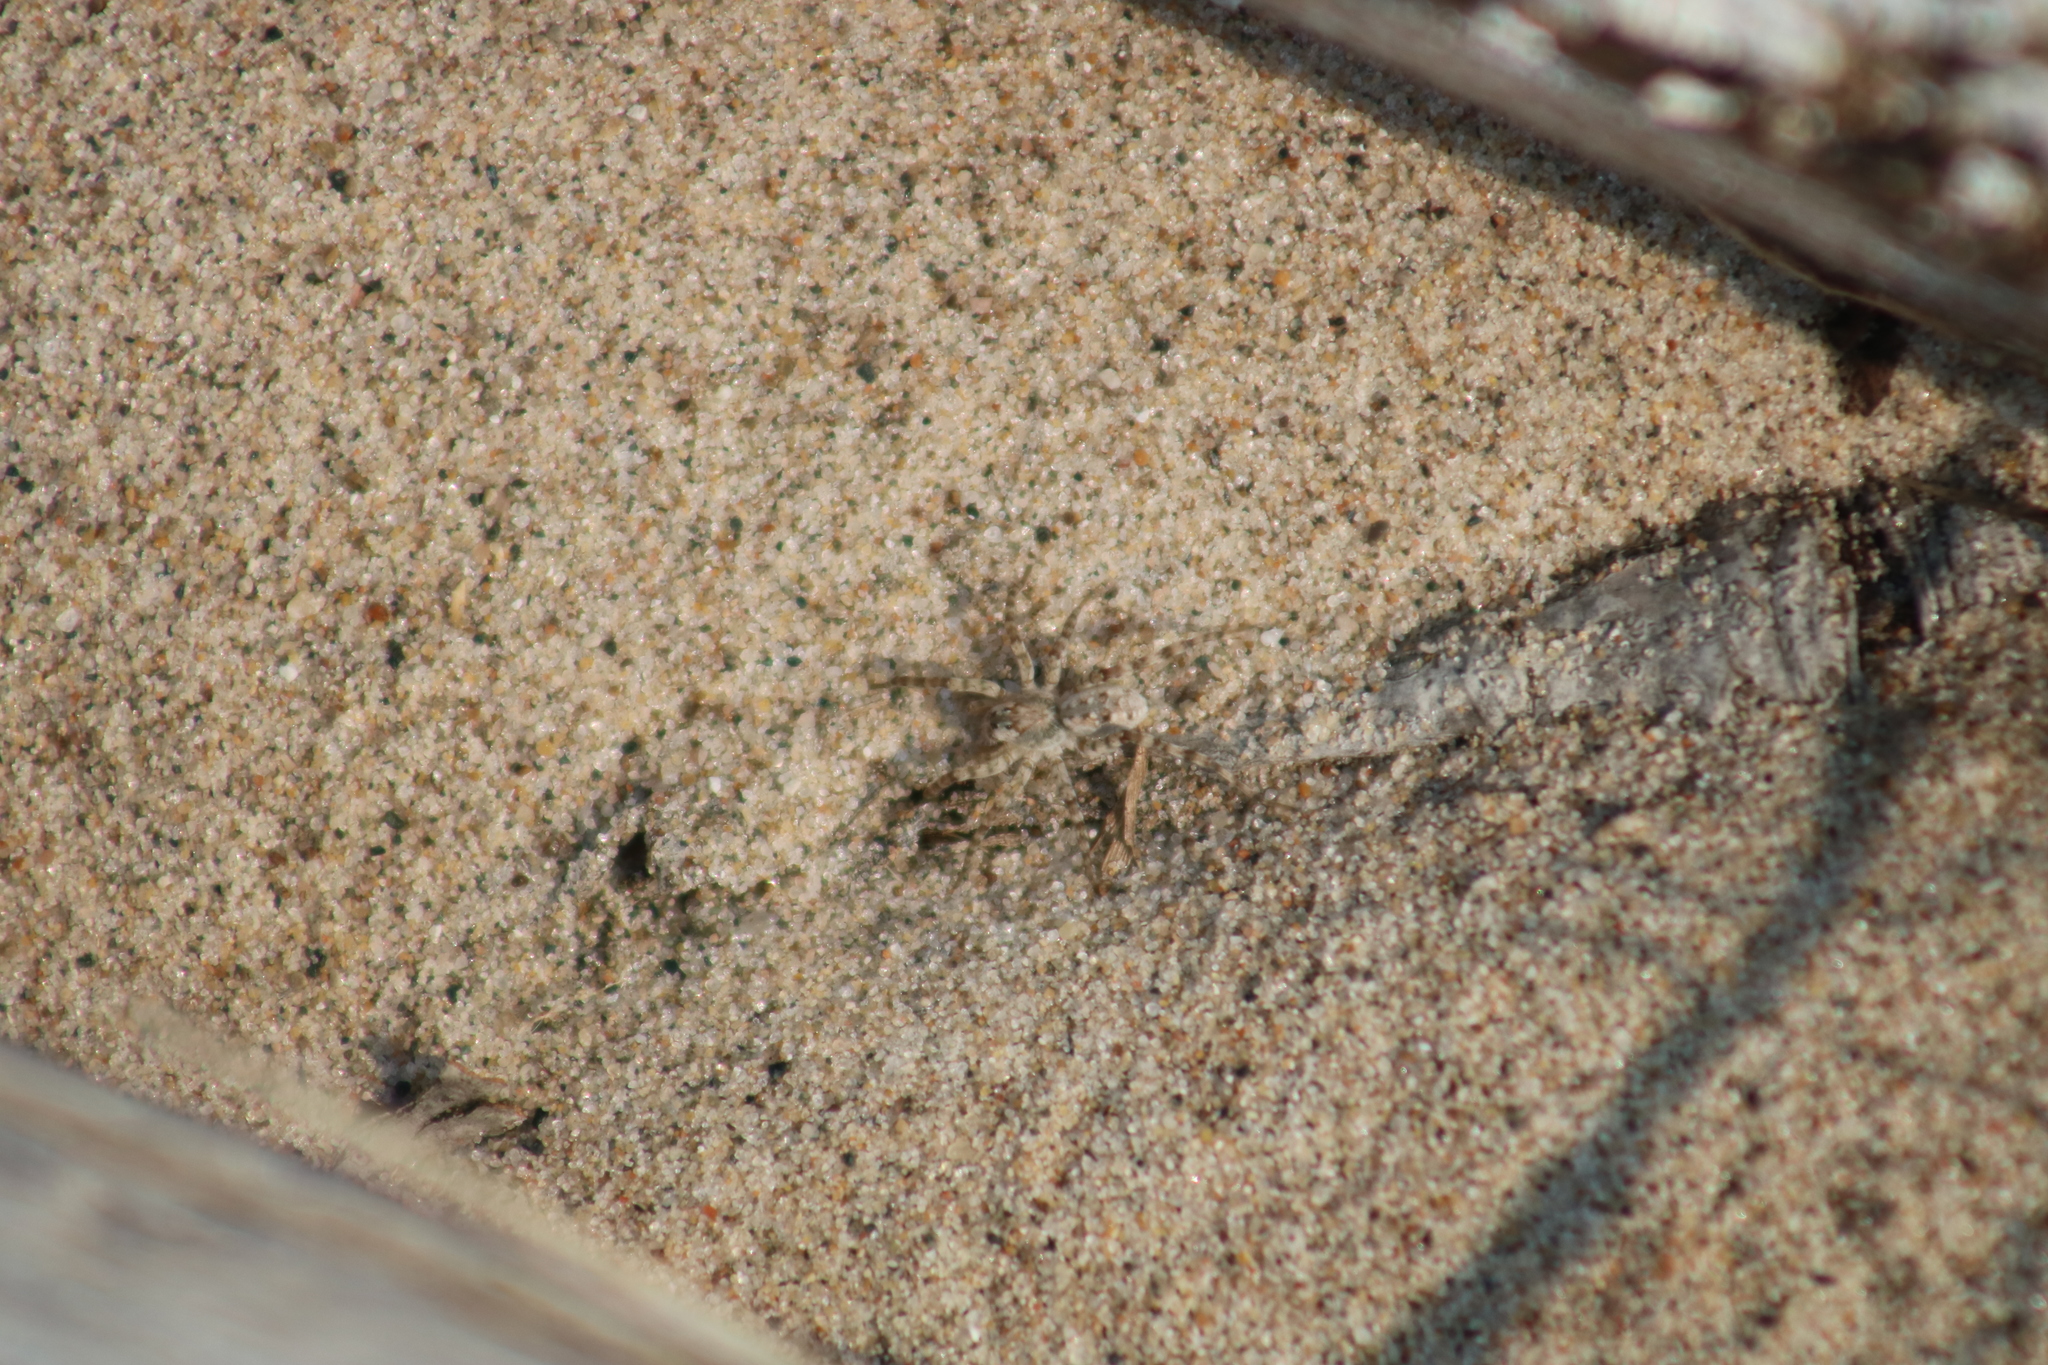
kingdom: Animalia
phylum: Arthropoda
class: Arachnida
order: Araneae
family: Lycosidae
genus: Arctosa
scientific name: Arctosa littoralis
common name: Wolf spiders
